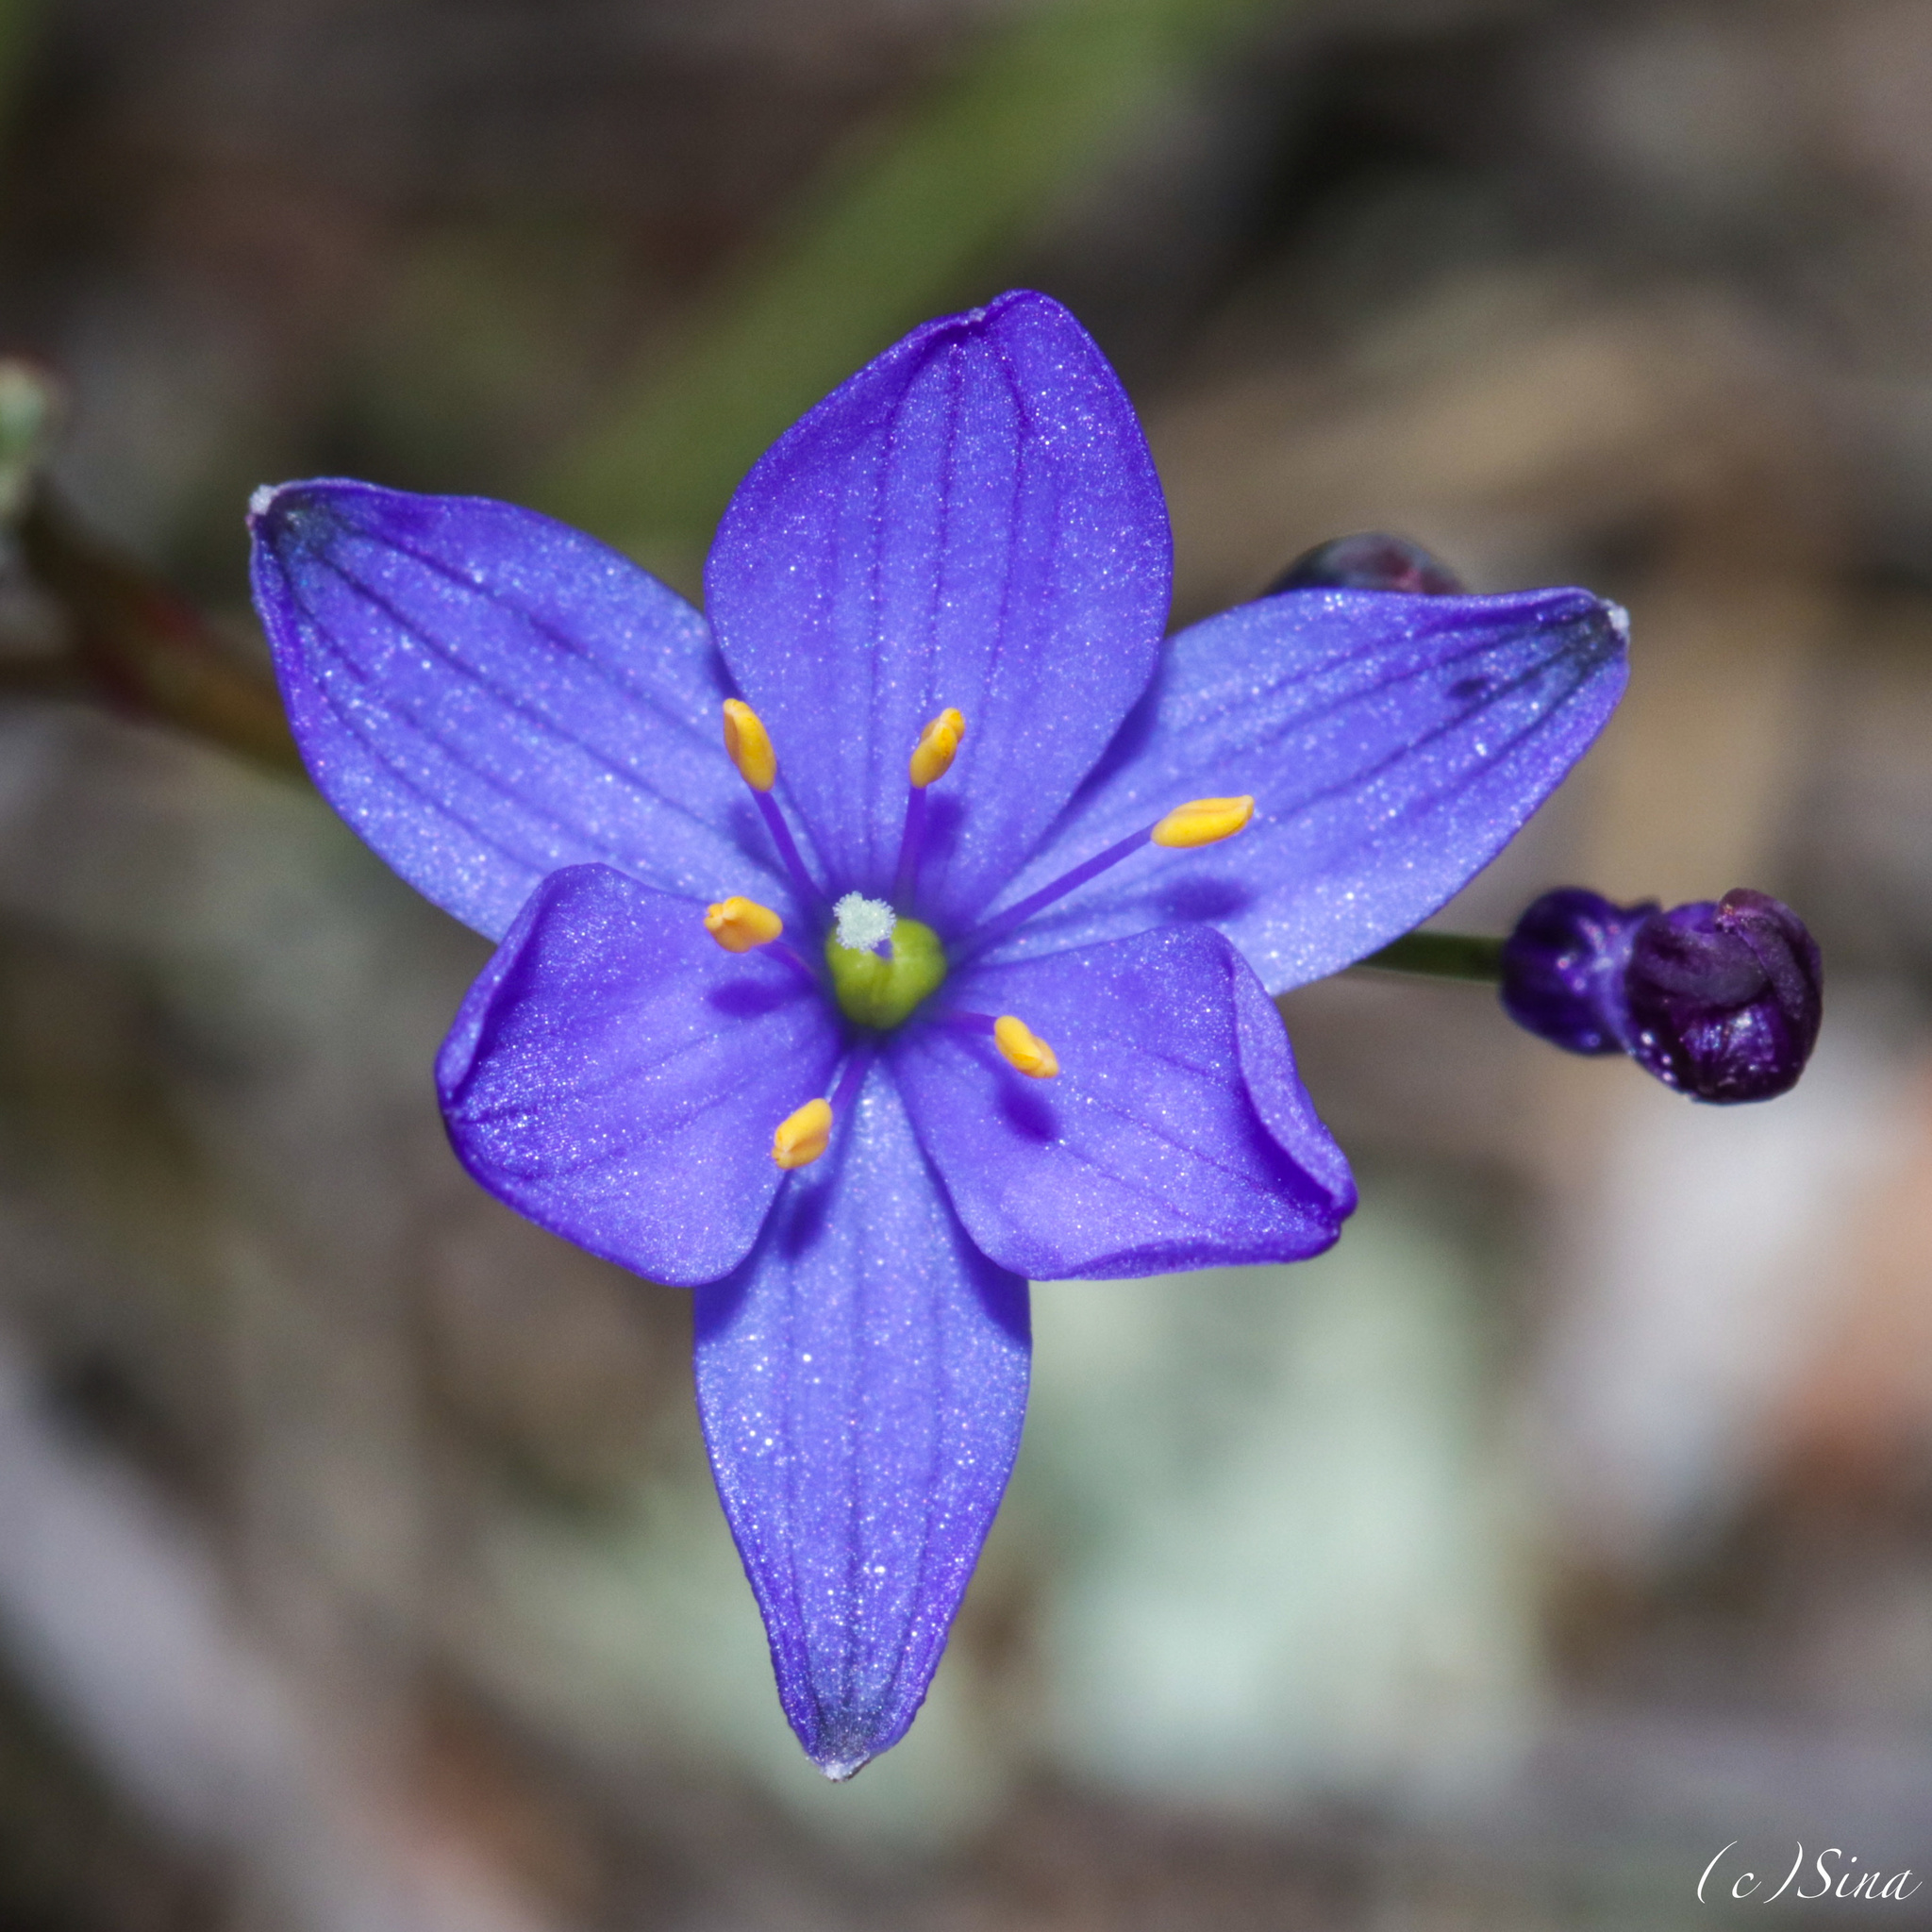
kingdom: Plantae
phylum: Tracheophyta
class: Liliopsida
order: Asparagales
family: Asphodelaceae
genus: Chamaescilla
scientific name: Chamaescilla corymbosa
